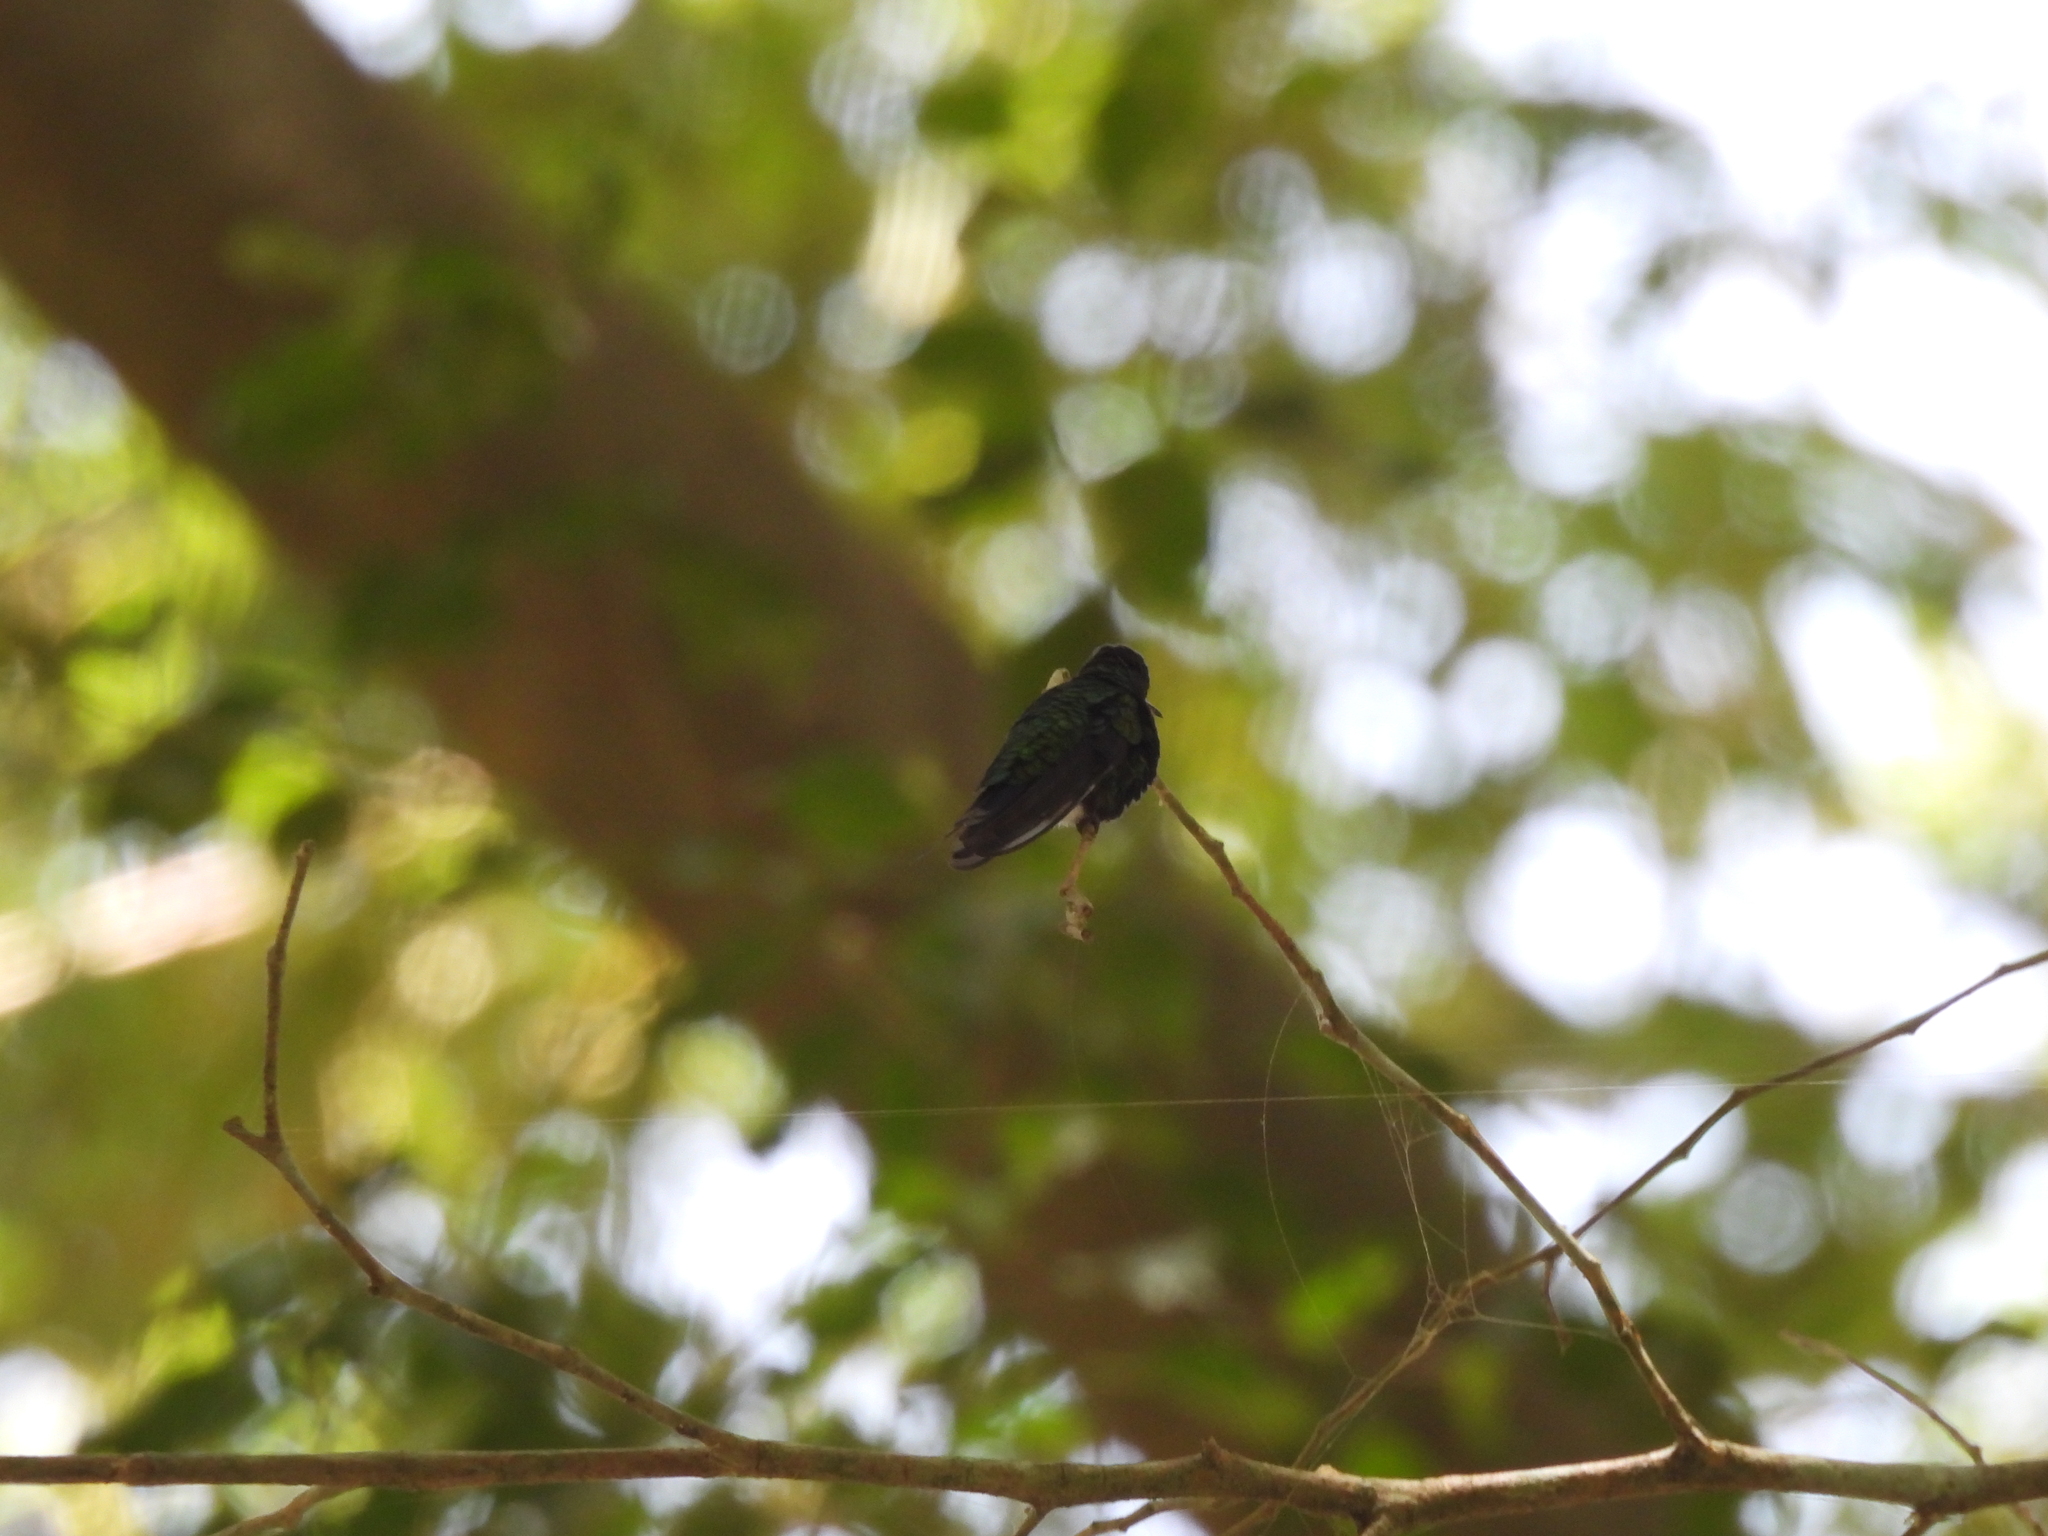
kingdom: Animalia
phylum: Chordata
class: Aves
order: Apodiformes
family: Trochilidae
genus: Cynanthus
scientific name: Cynanthus canivetii
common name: Canivet's emerald
